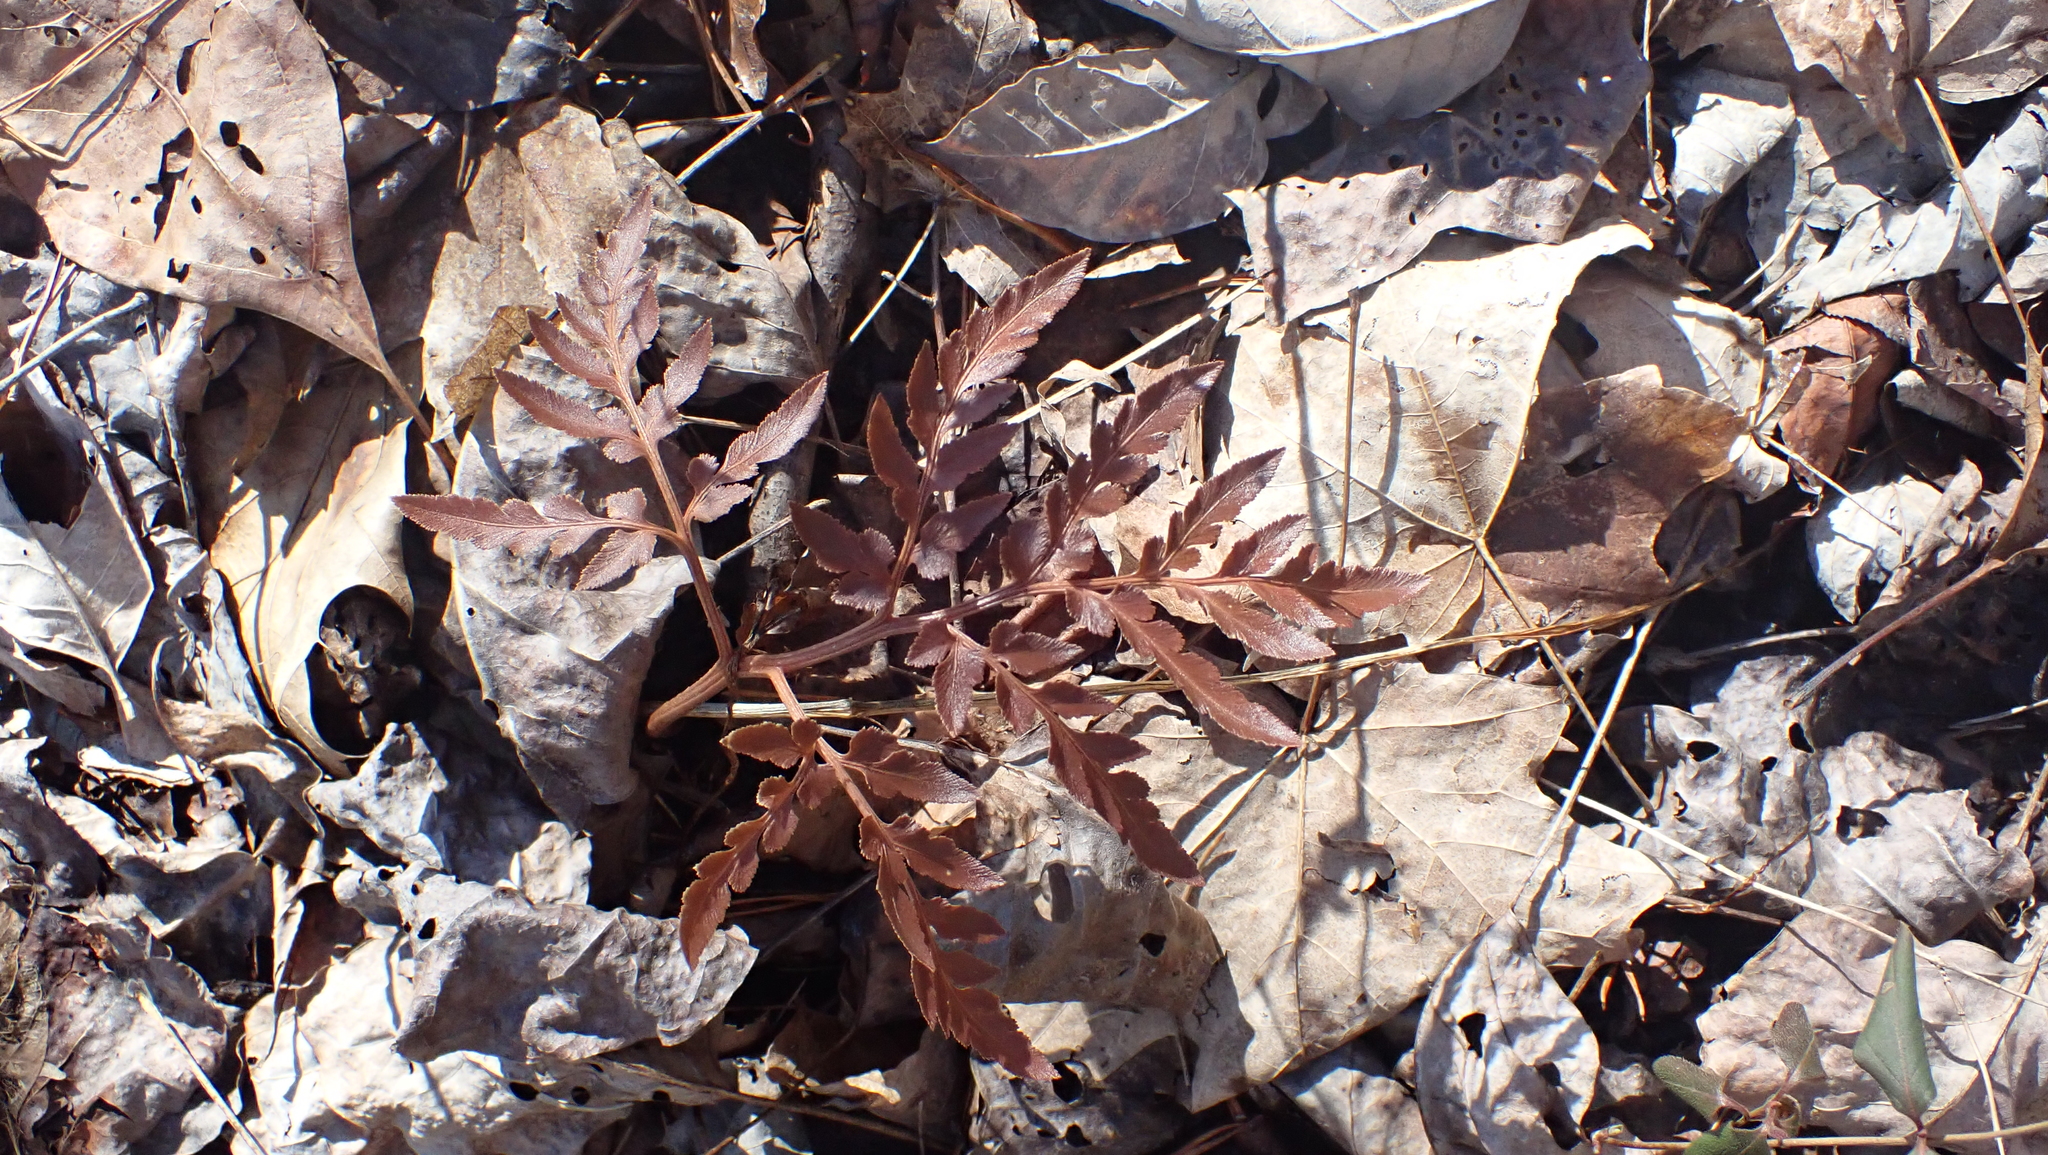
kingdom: Plantae
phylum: Tracheophyta
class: Polypodiopsida
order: Ophioglossales
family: Ophioglossaceae
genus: Sceptridium
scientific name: Sceptridium dissectum
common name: Cut-leaved grapefern
